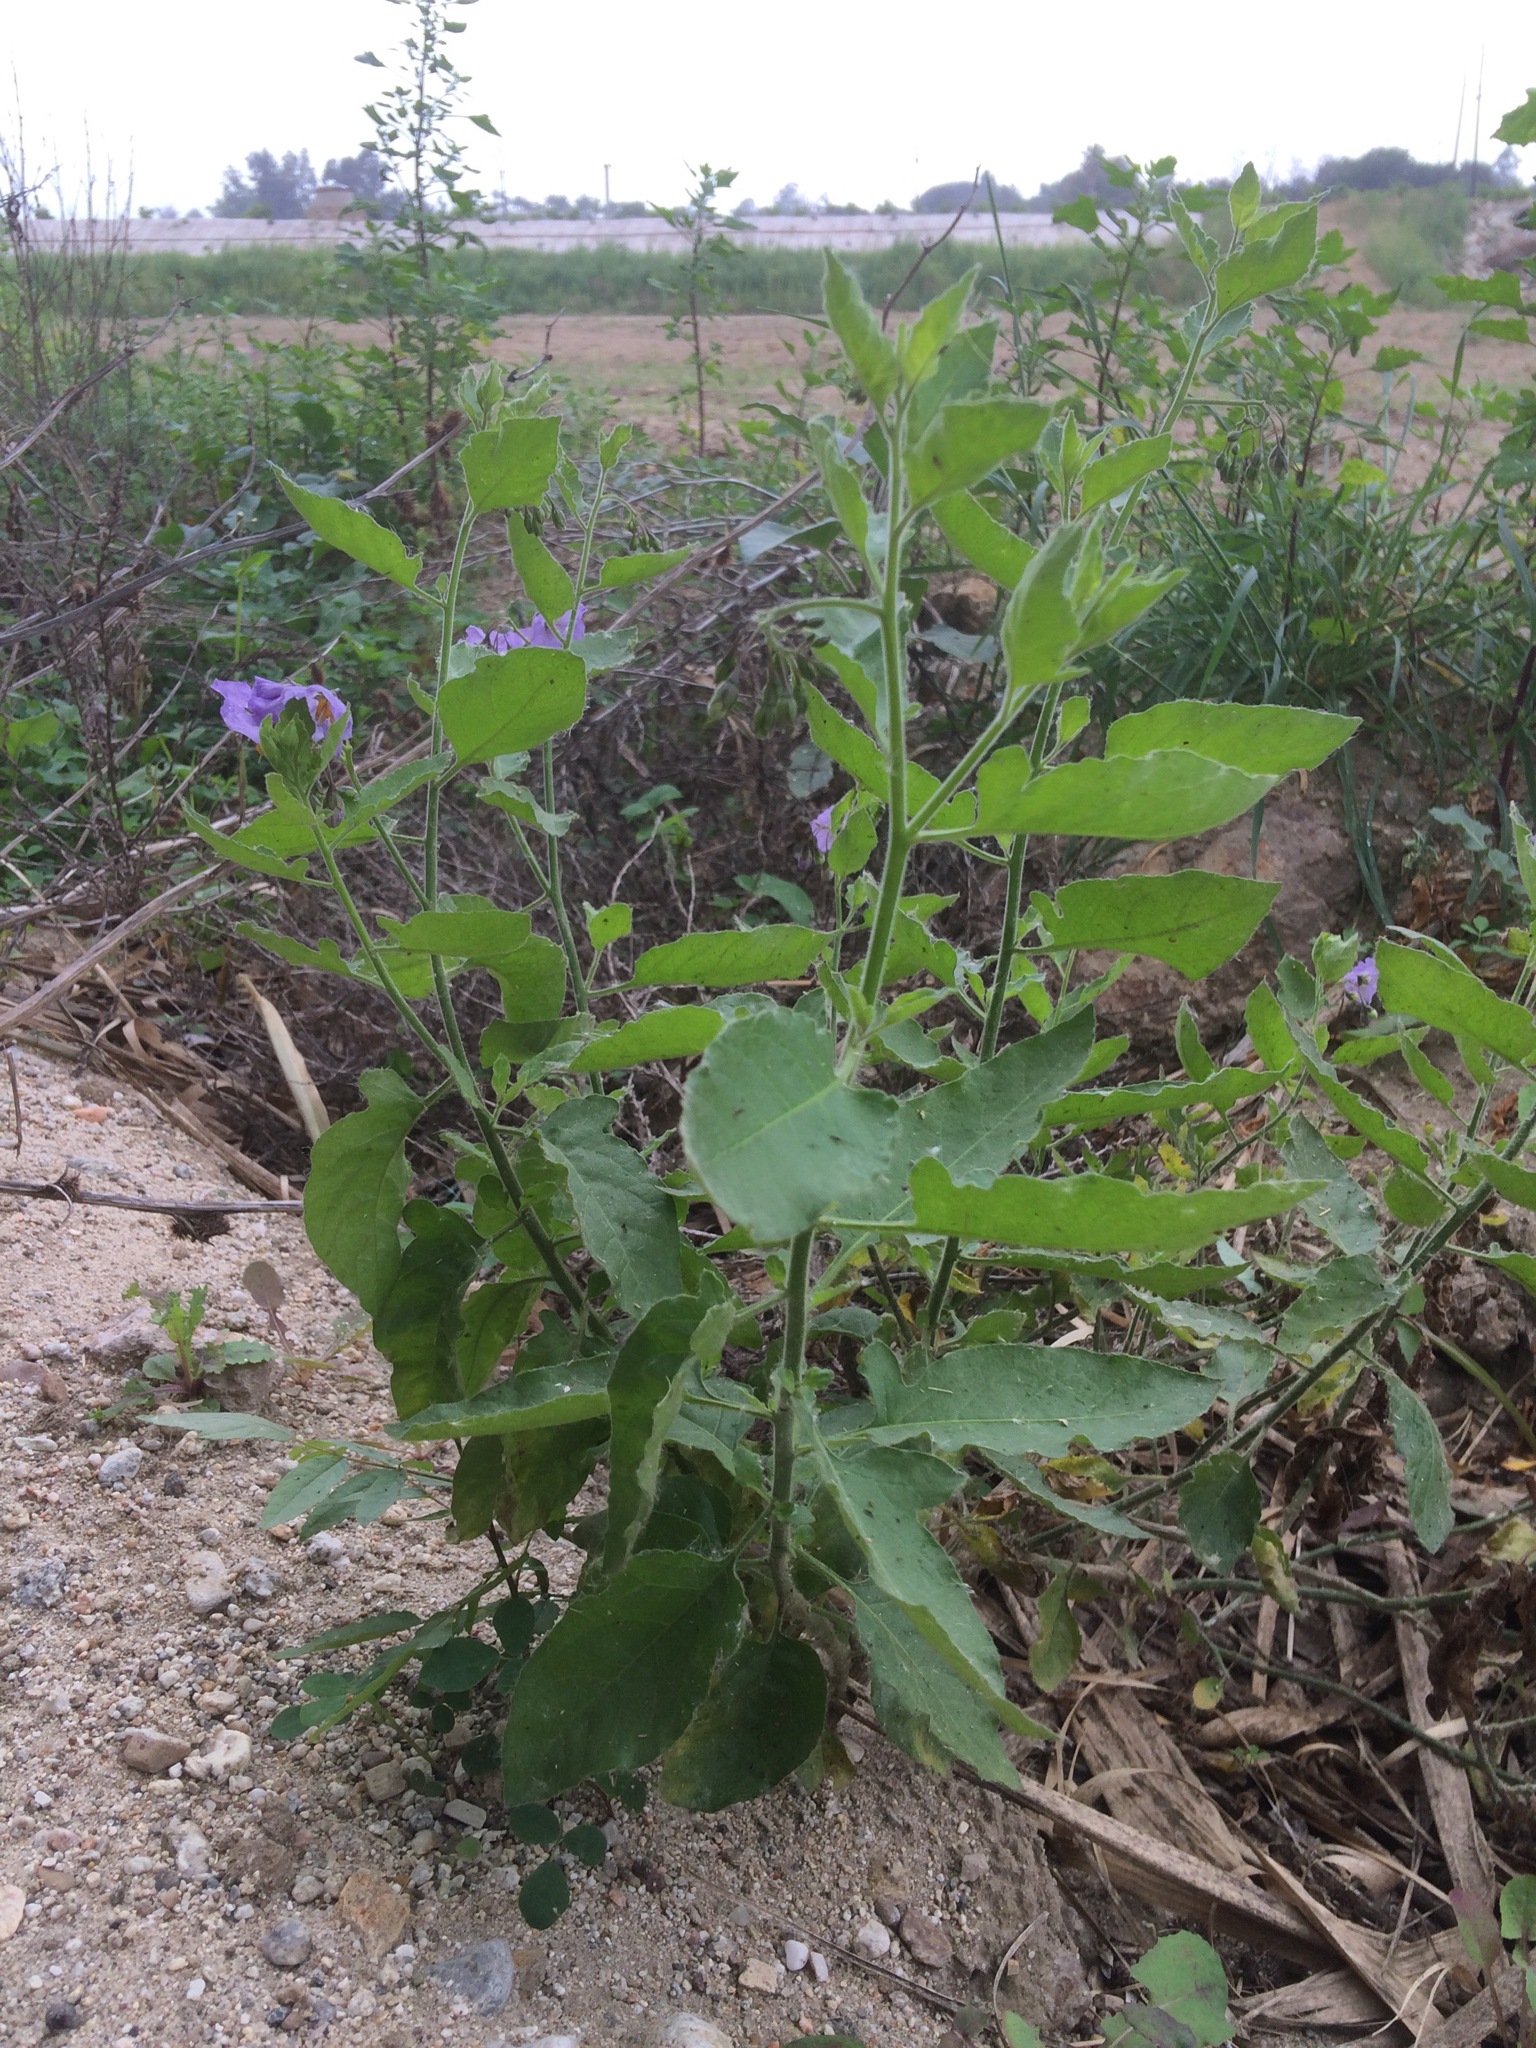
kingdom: Plantae
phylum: Tracheophyta
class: Magnoliopsida
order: Solanales
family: Solanaceae
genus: Solanum
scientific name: Solanum umbelliferum
